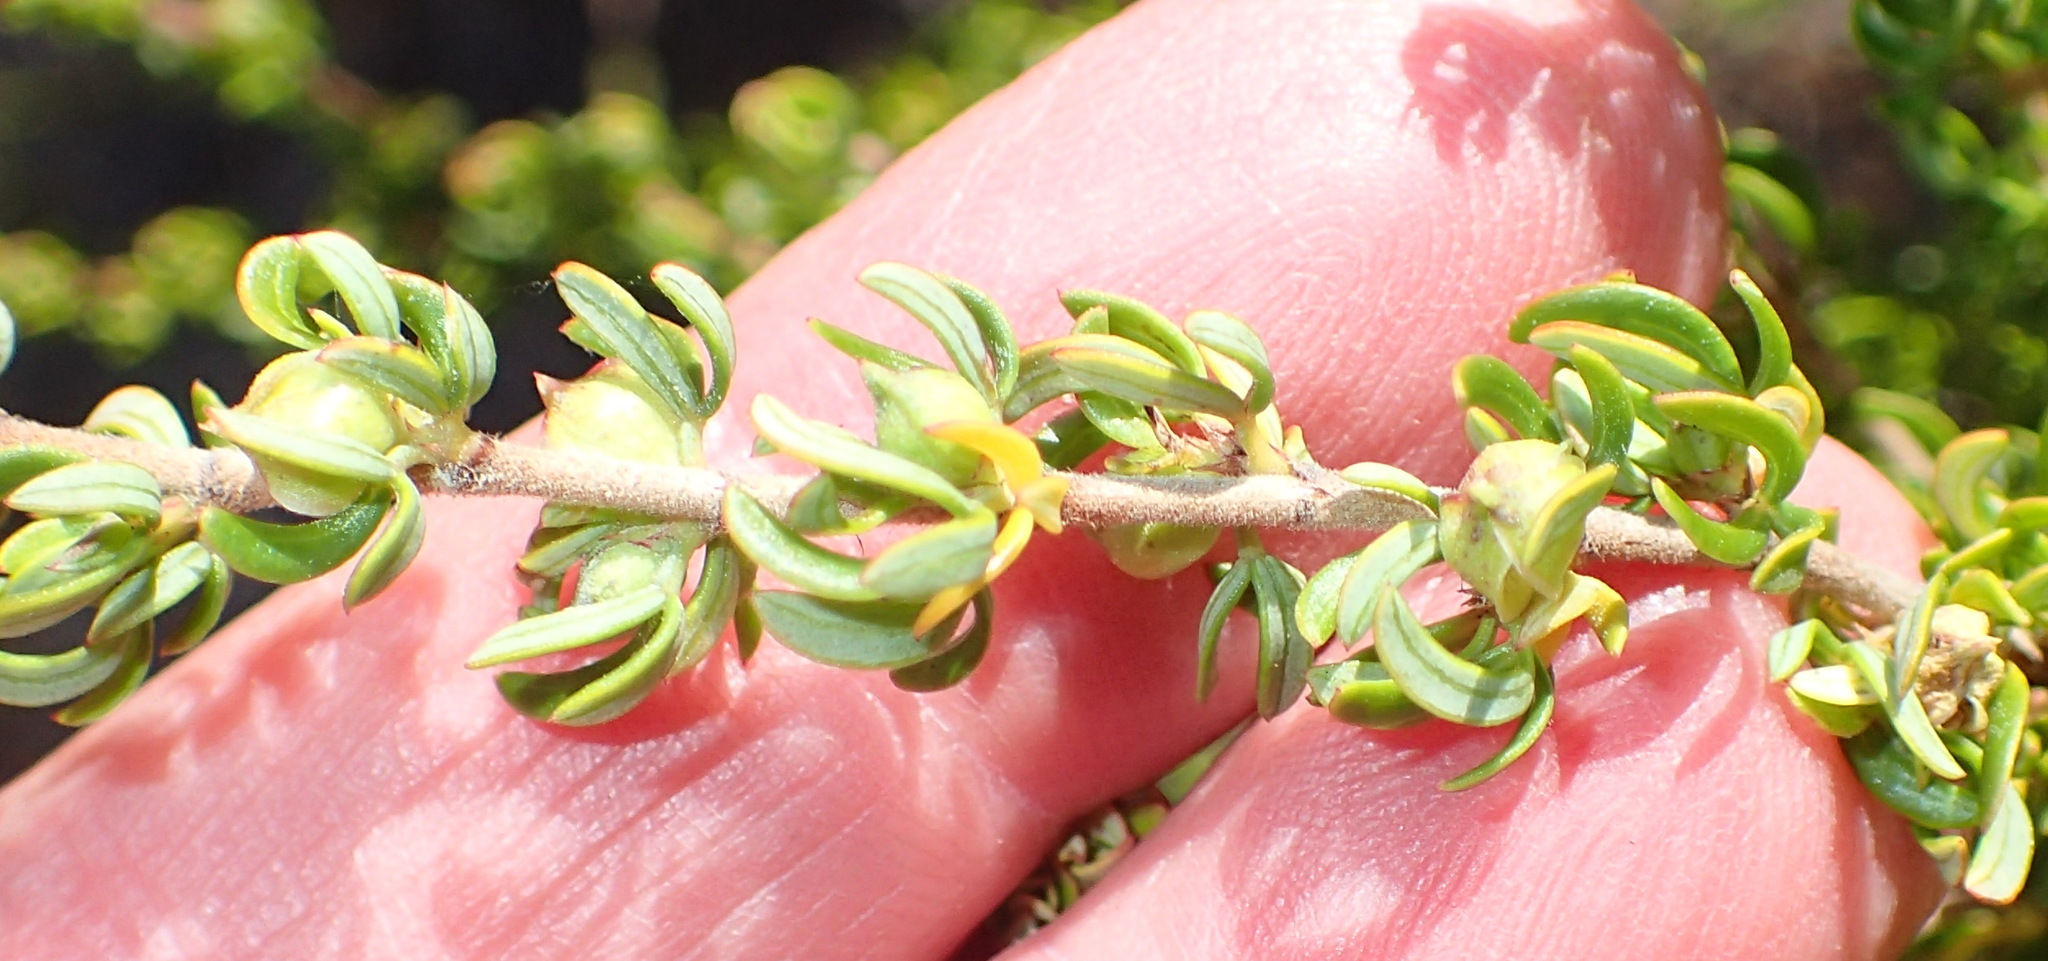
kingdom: Plantae
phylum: Tracheophyta
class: Magnoliopsida
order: Rosales
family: Rosaceae
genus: Cliffortia
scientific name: Cliffortia falcata
